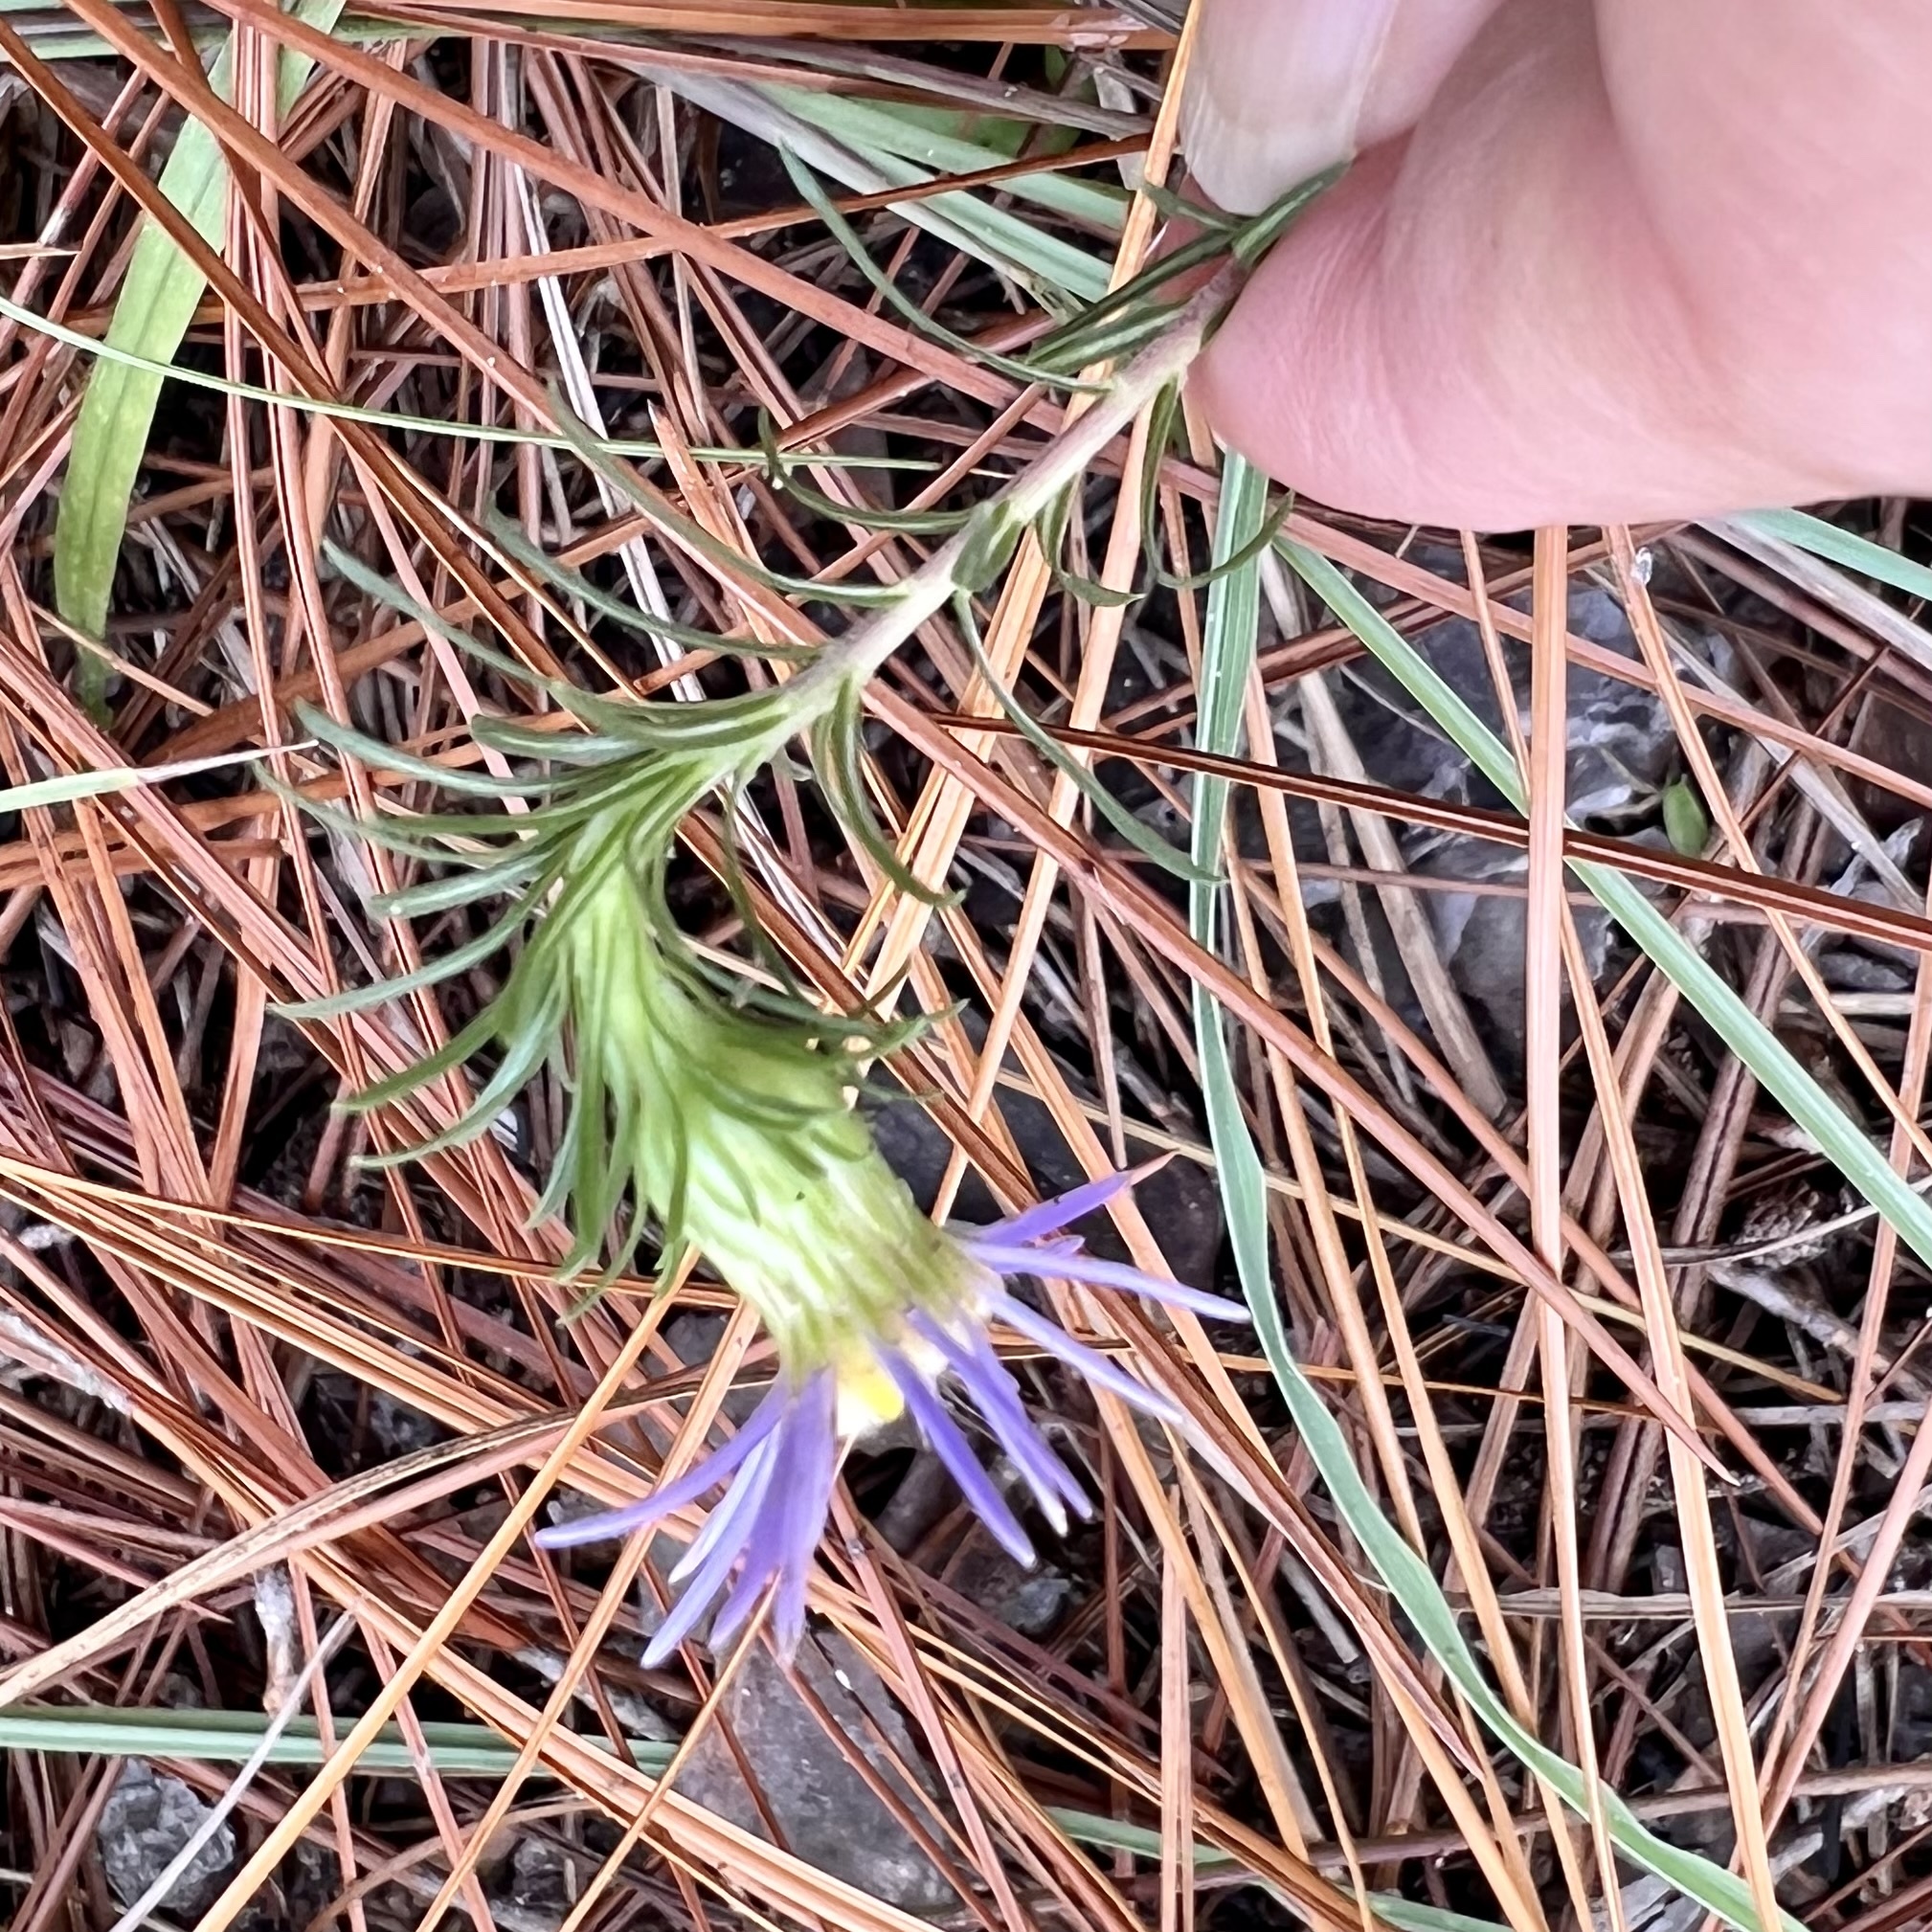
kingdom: Plantae
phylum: Tracheophyta
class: Magnoliopsida
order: Asterales
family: Asteraceae
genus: Ionactis
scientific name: Ionactis linariifolia
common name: Flax-leaf aster
